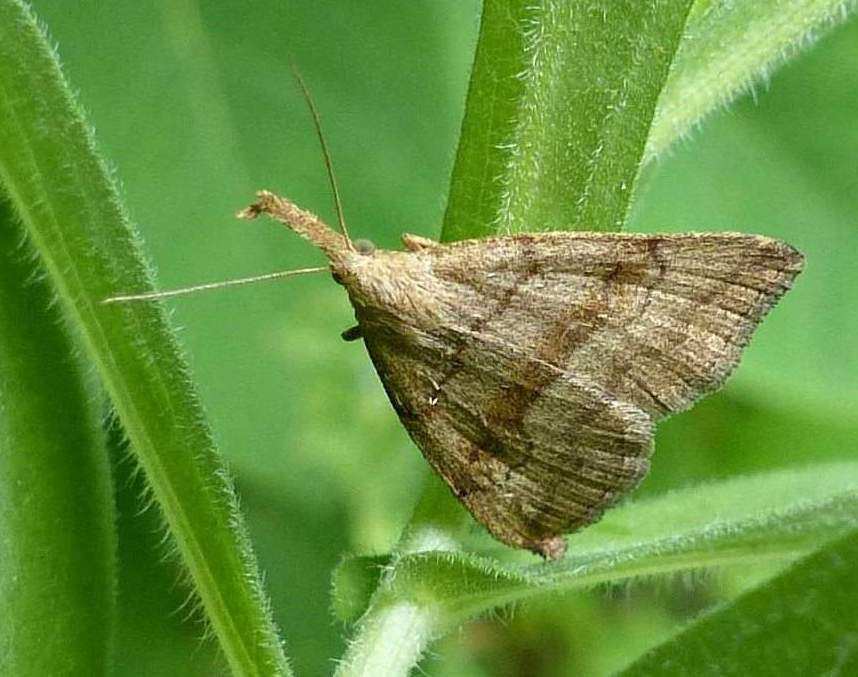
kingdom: Animalia
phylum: Arthropoda
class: Insecta
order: Lepidoptera
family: Erebidae
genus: Phalaenostola
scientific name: Phalaenostola metonalis
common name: Pale phalaenostola moth
